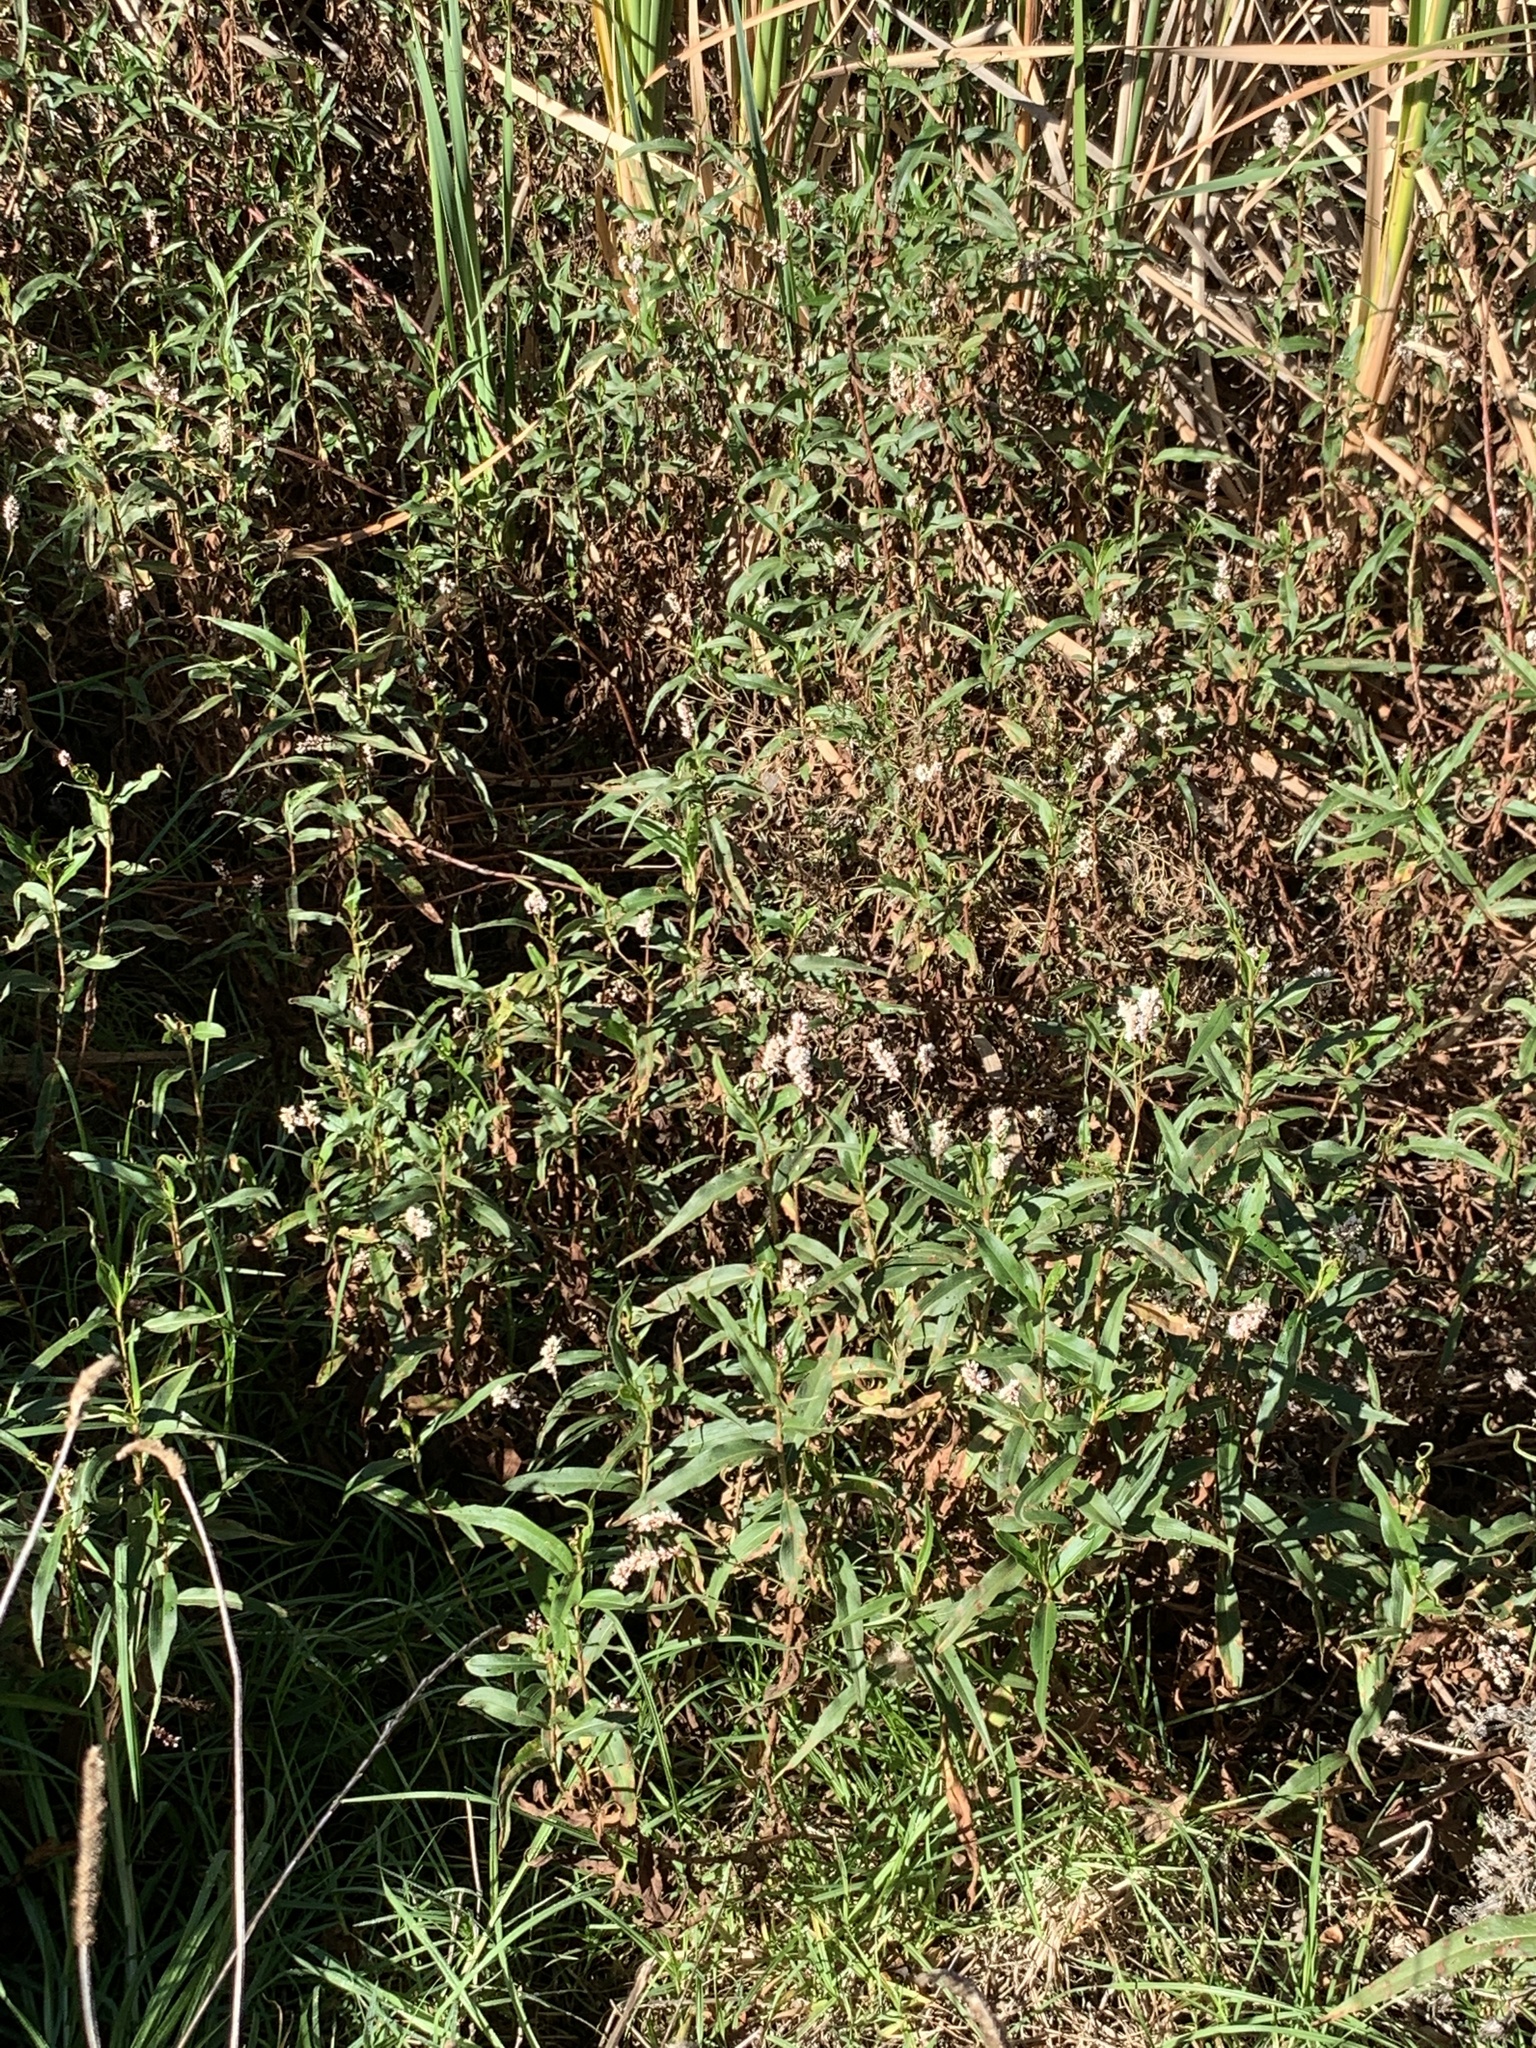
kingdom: Plantae
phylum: Tracheophyta
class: Magnoliopsida
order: Caryophyllales
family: Polygonaceae
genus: Persicaria
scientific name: Persicaria madagascariensis
